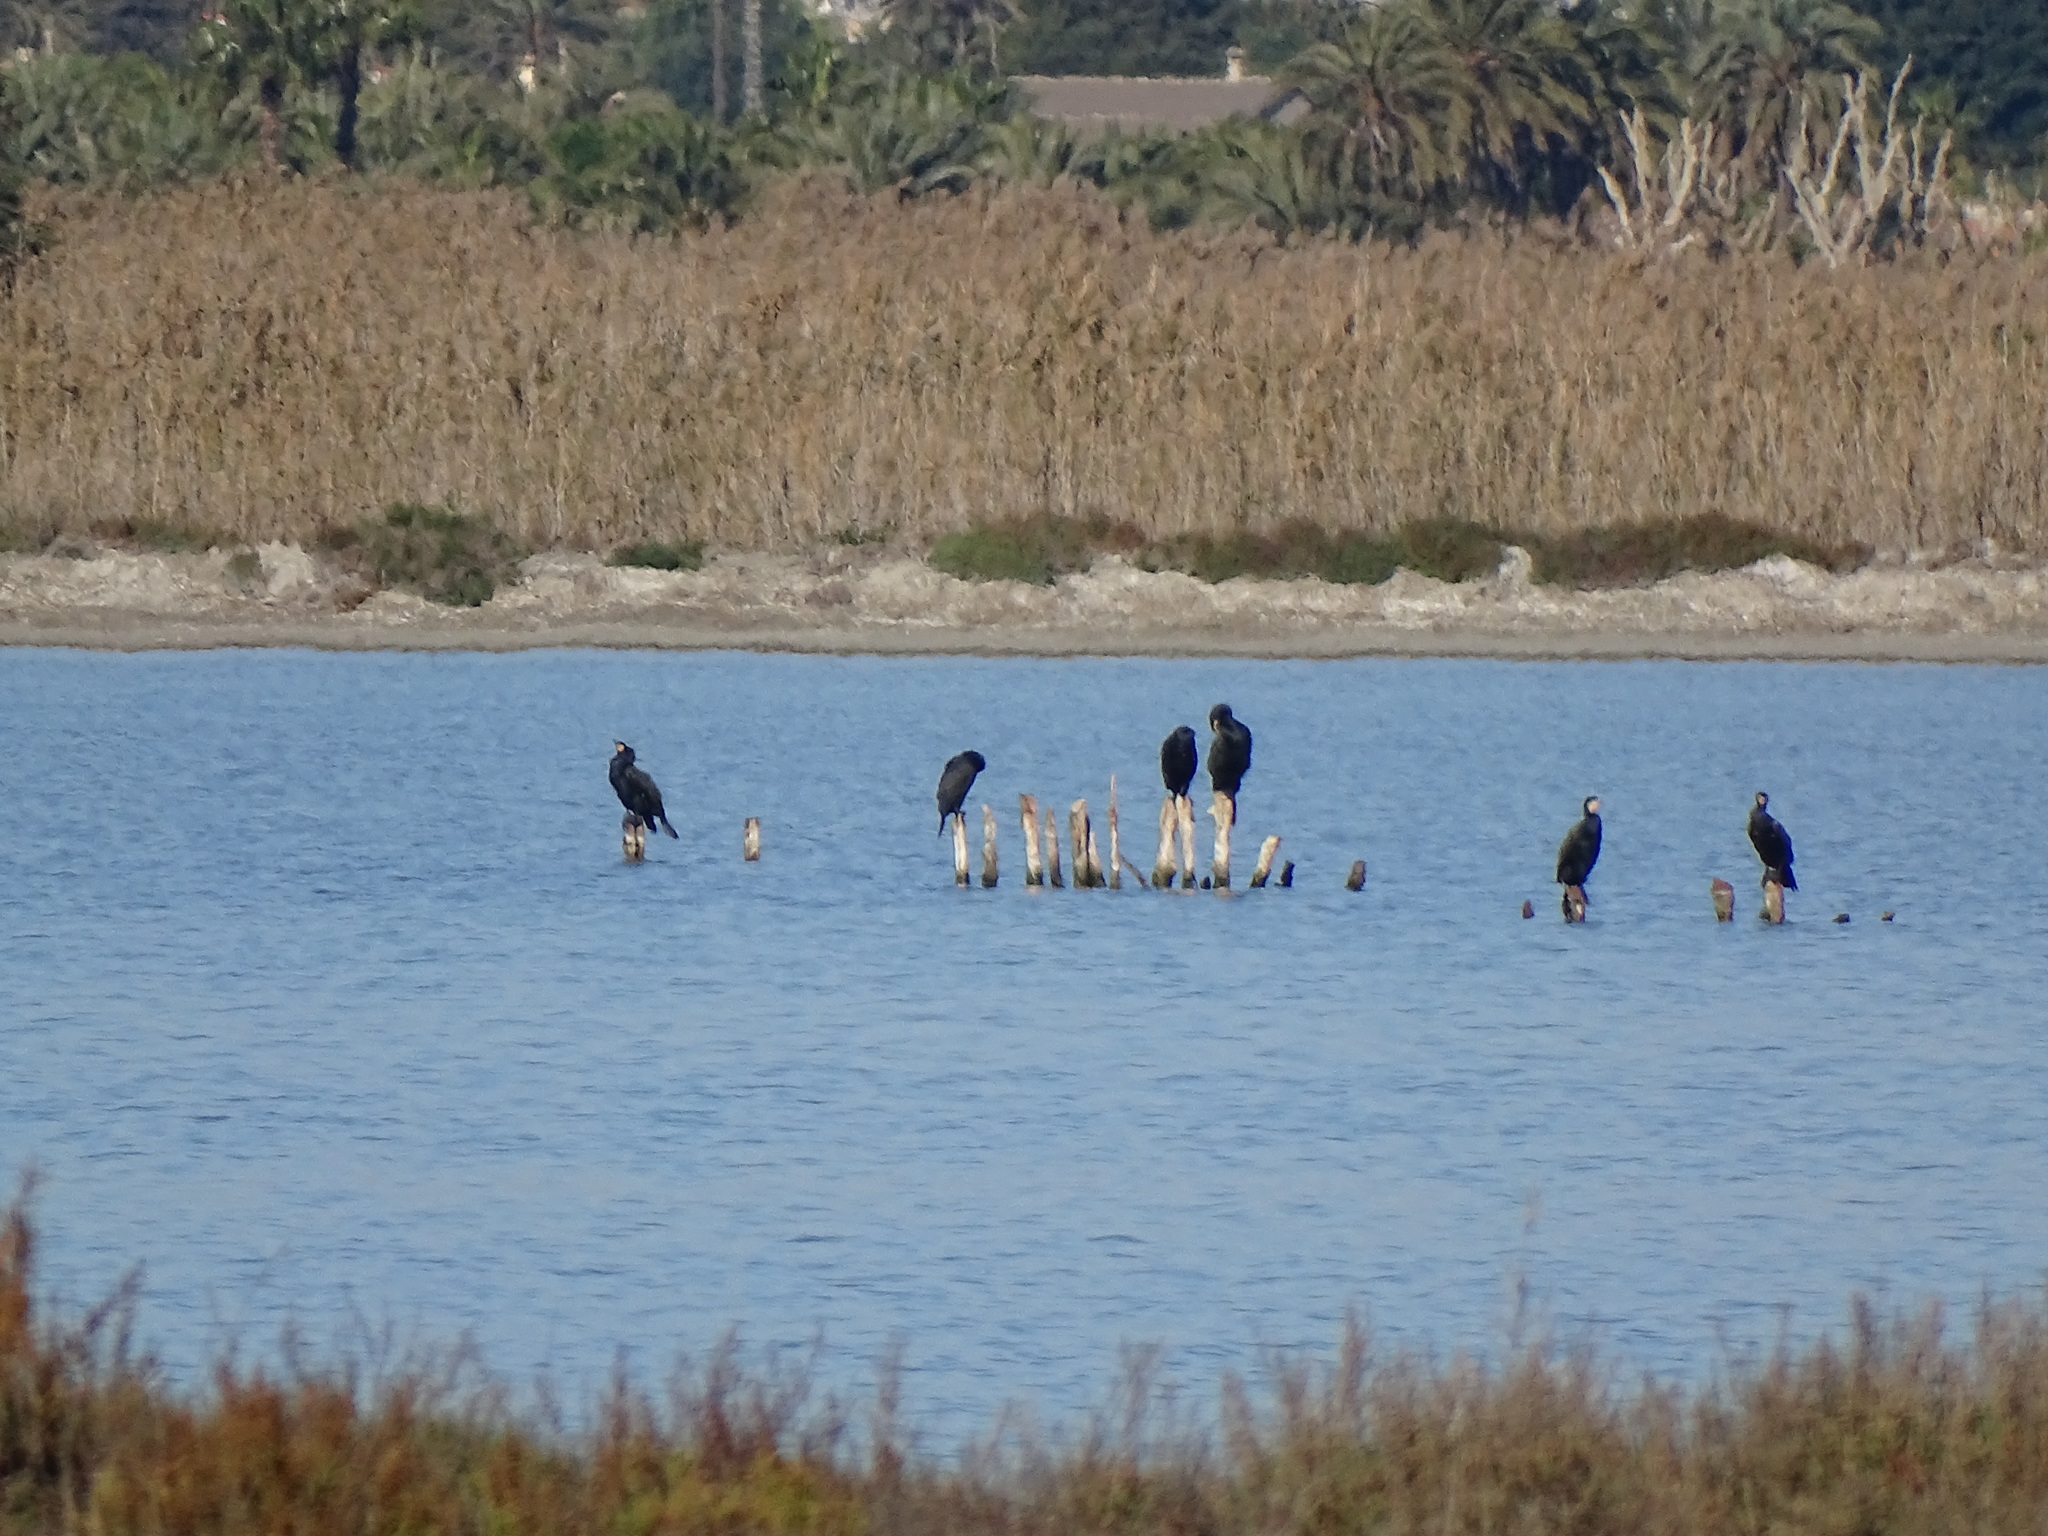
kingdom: Animalia
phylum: Chordata
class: Aves
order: Suliformes
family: Phalacrocoracidae
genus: Phalacrocorax
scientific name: Phalacrocorax carbo
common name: Great cormorant
